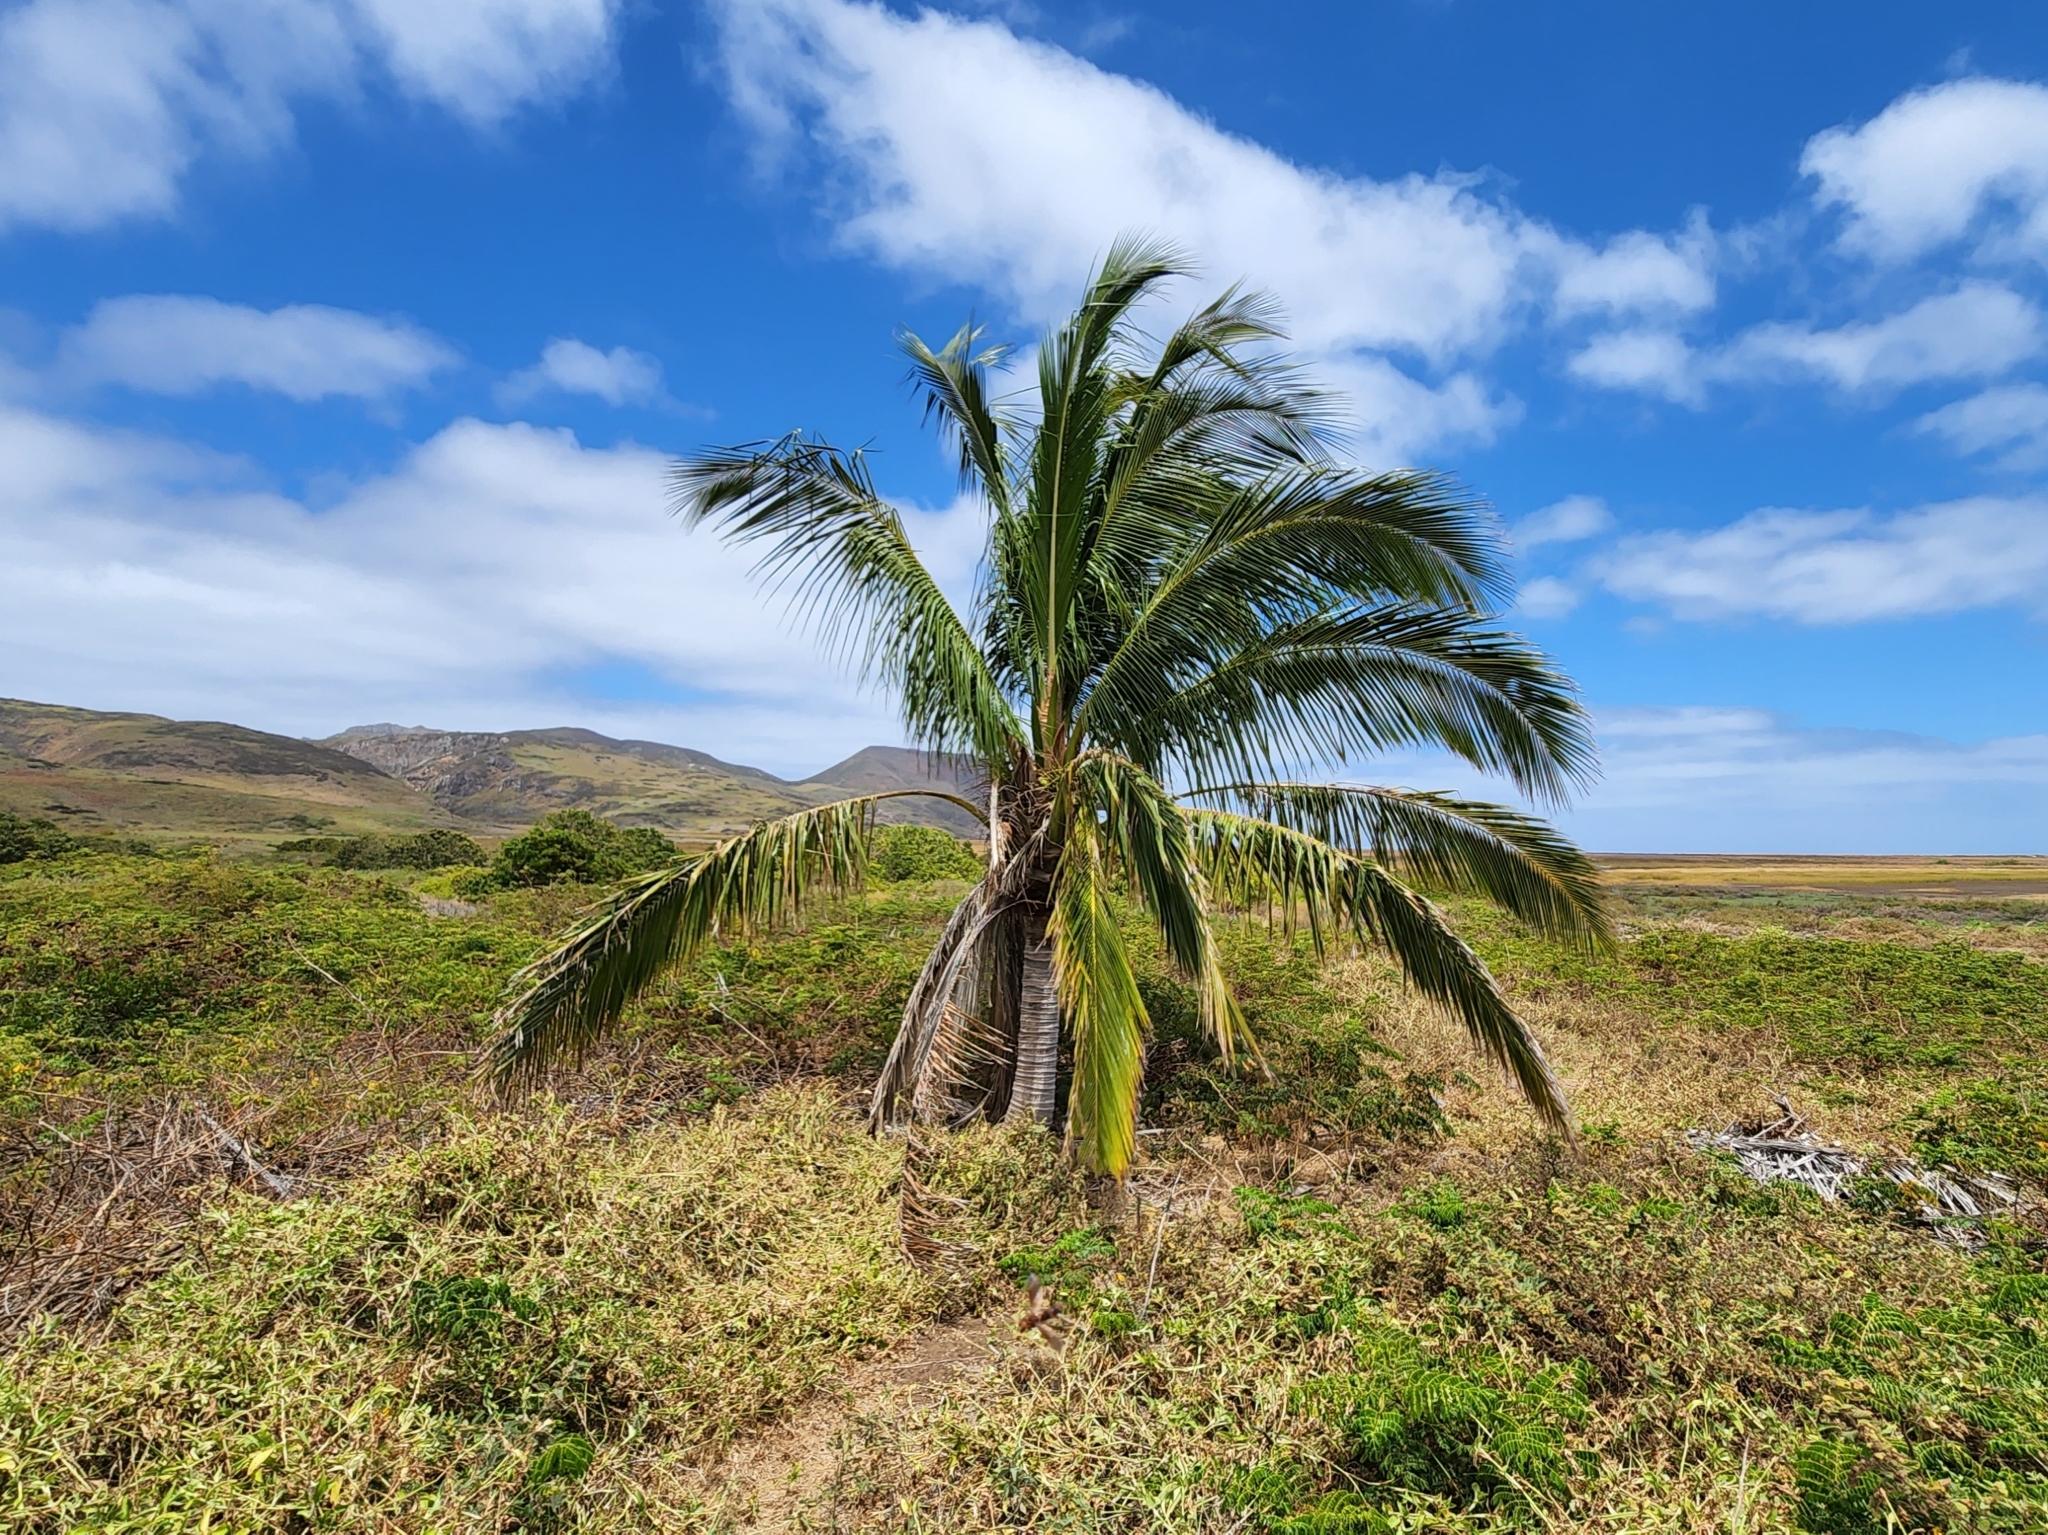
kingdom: Plantae
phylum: Tracheophyta
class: Liliopsida
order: Arecales
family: Arecaceae
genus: Cocos
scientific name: Cocos nucifera
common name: Coconut palm
